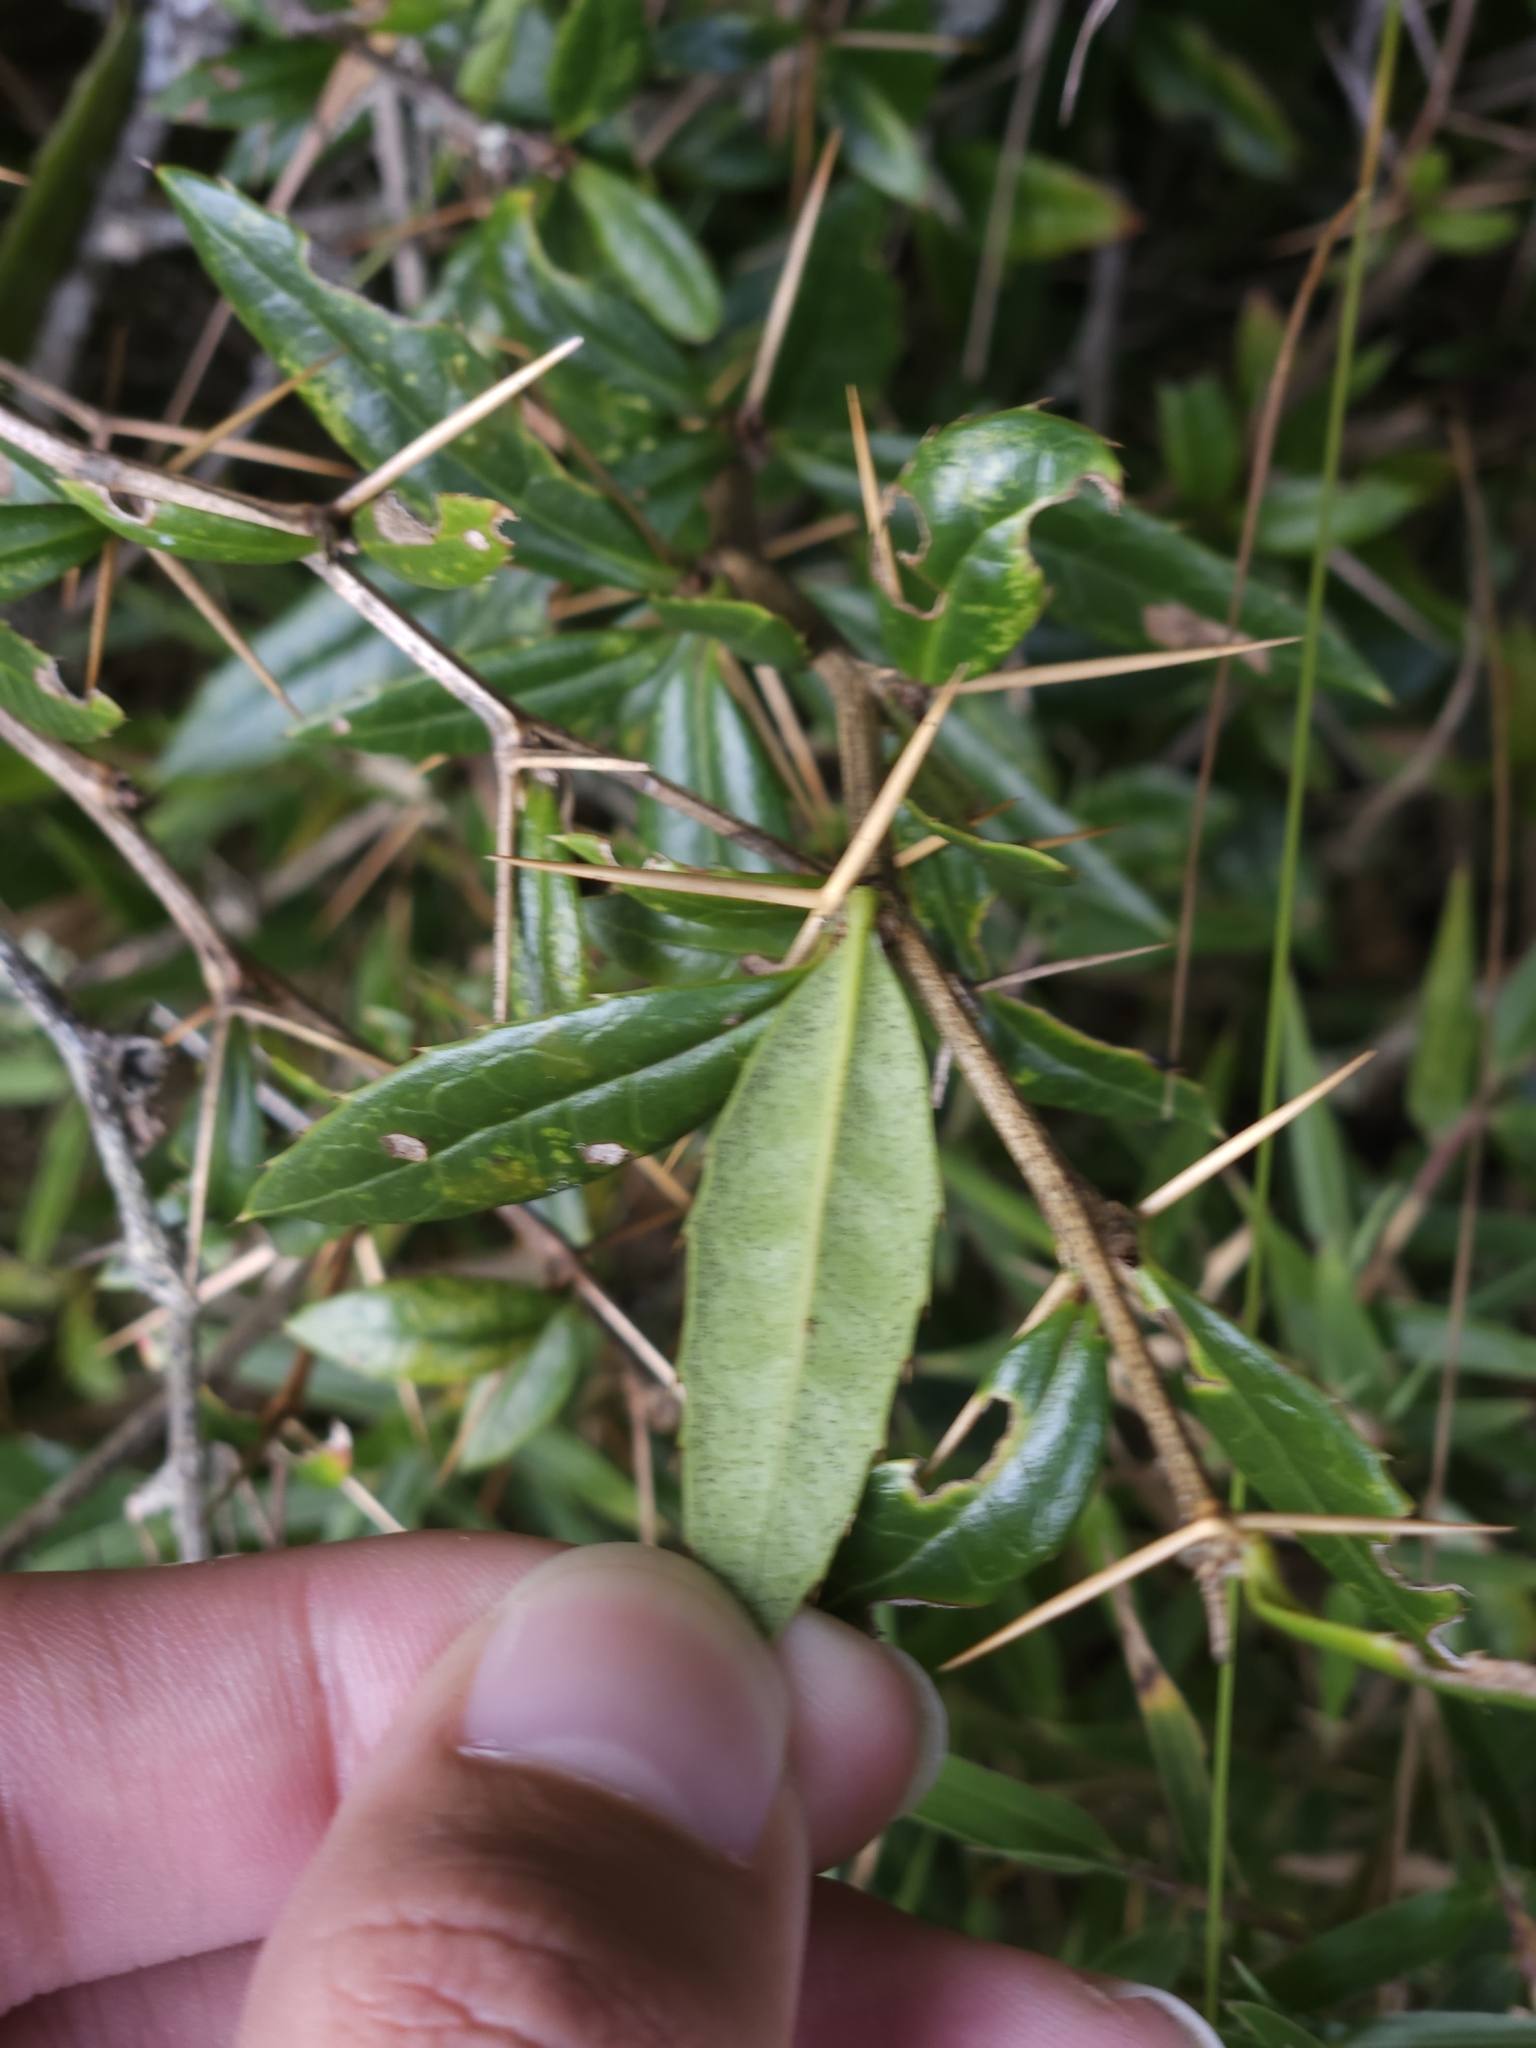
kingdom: Plantae
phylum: Tracheophyta
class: Magnoliopsida
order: Ranunculales
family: Berberidaceae
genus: Berberis
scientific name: Berberis kawakamii
